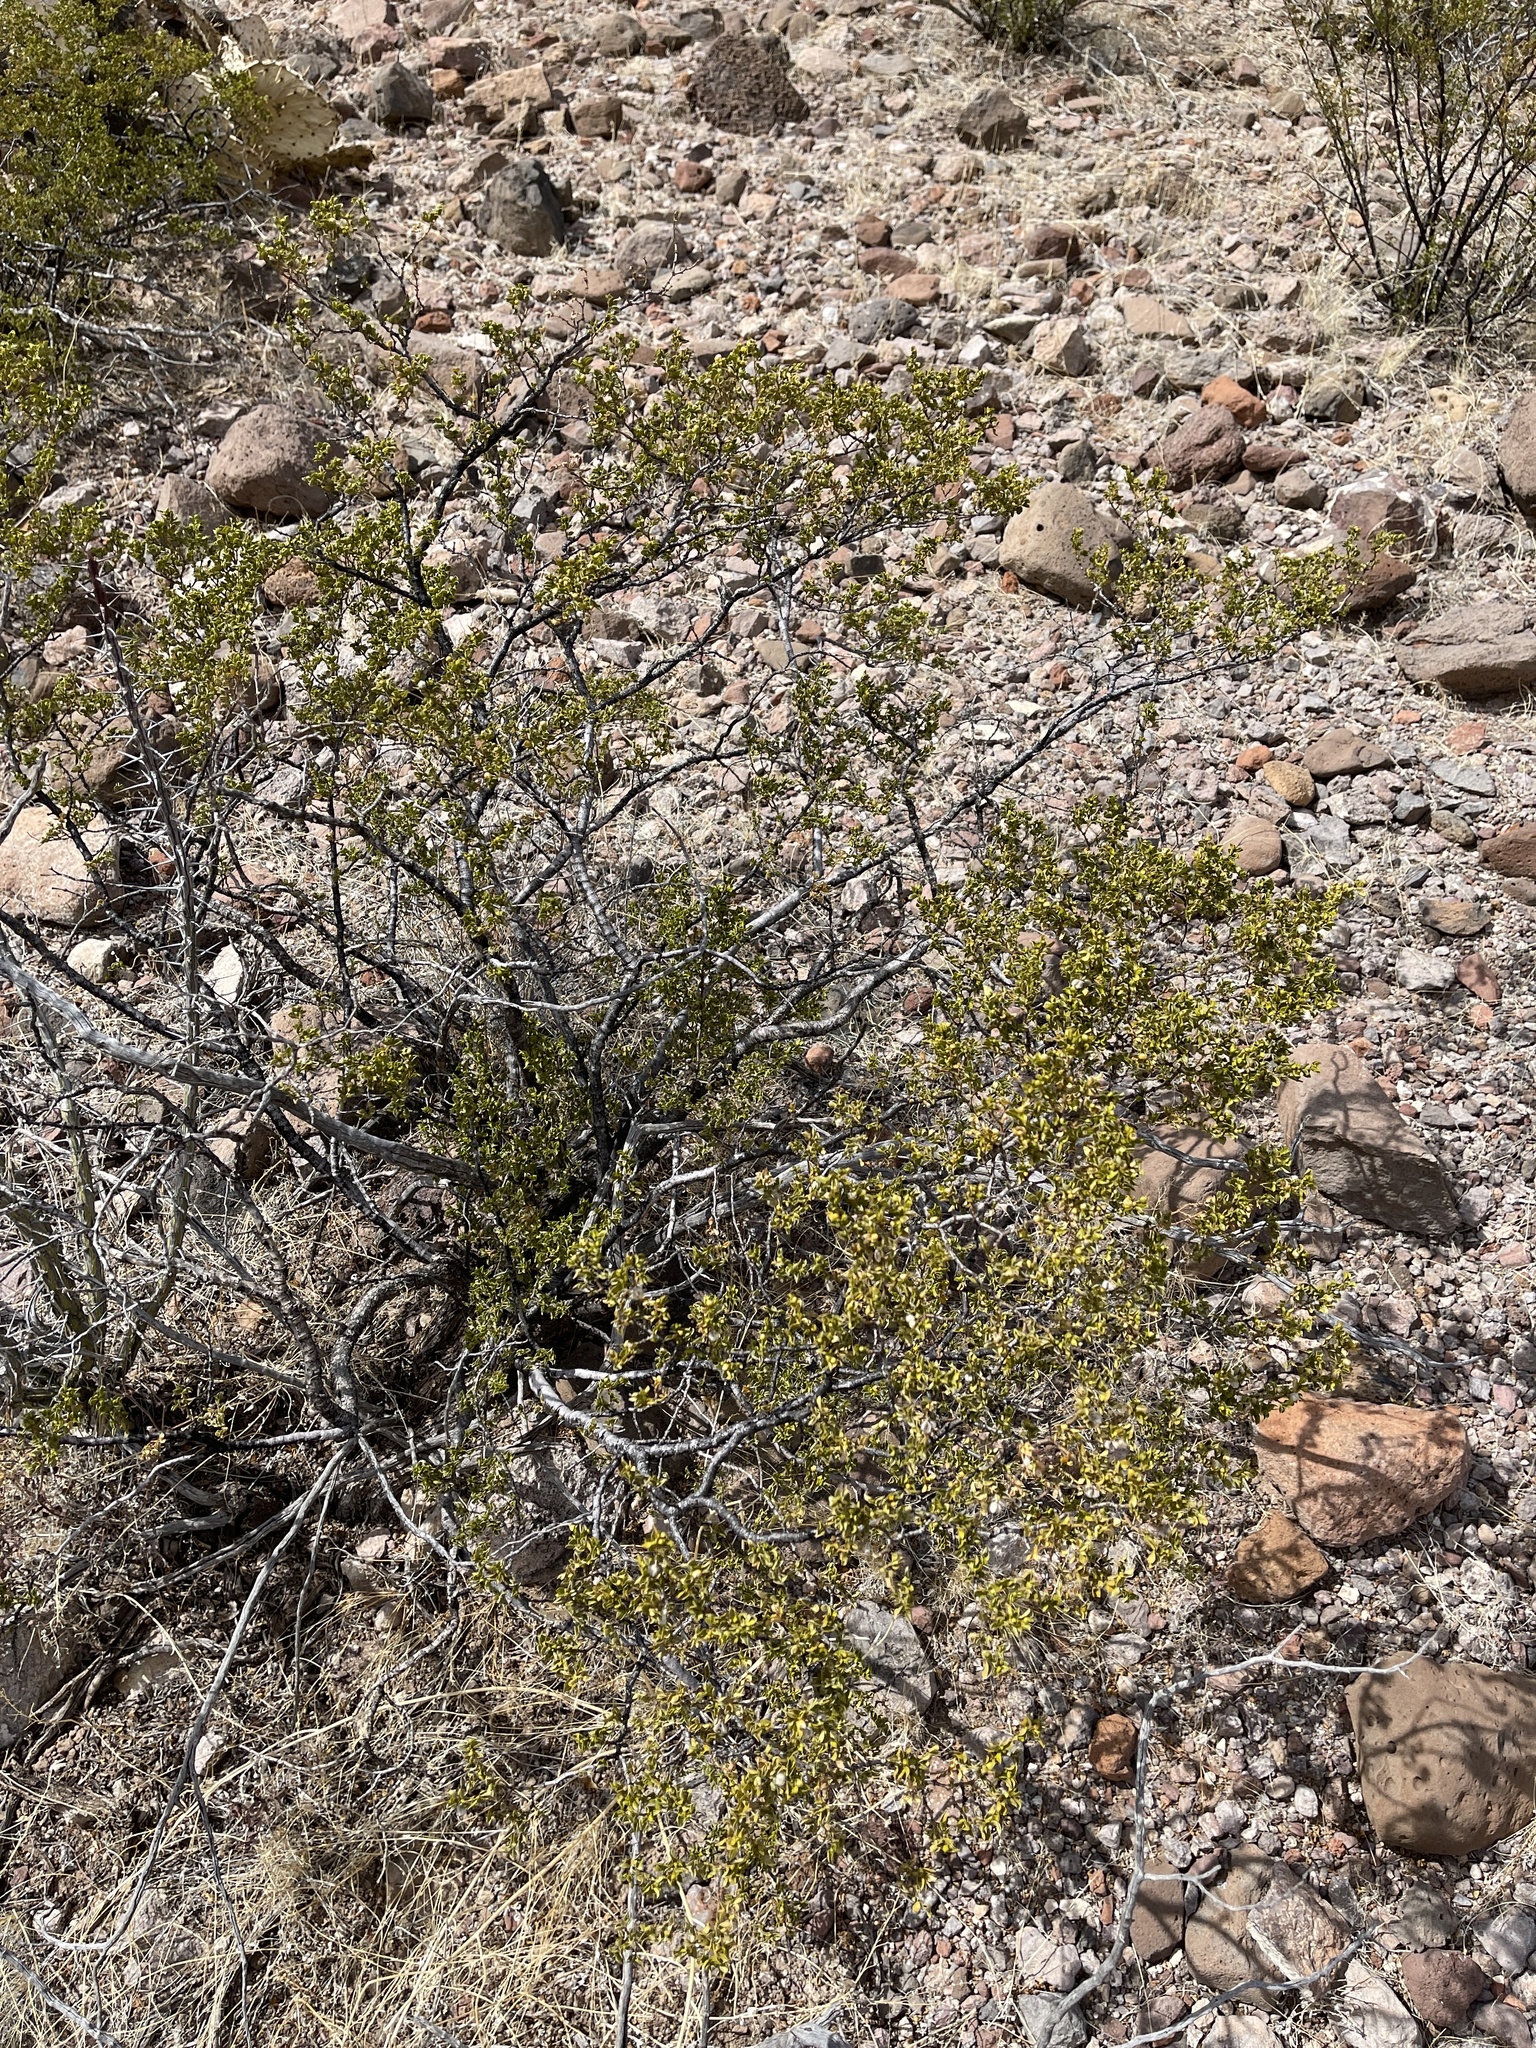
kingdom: Plantae
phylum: Tracheophyta
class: Magnoliopsida
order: Zygophyllales
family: Zygophyllaceae
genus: Larrea
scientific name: Larrea tridentata
